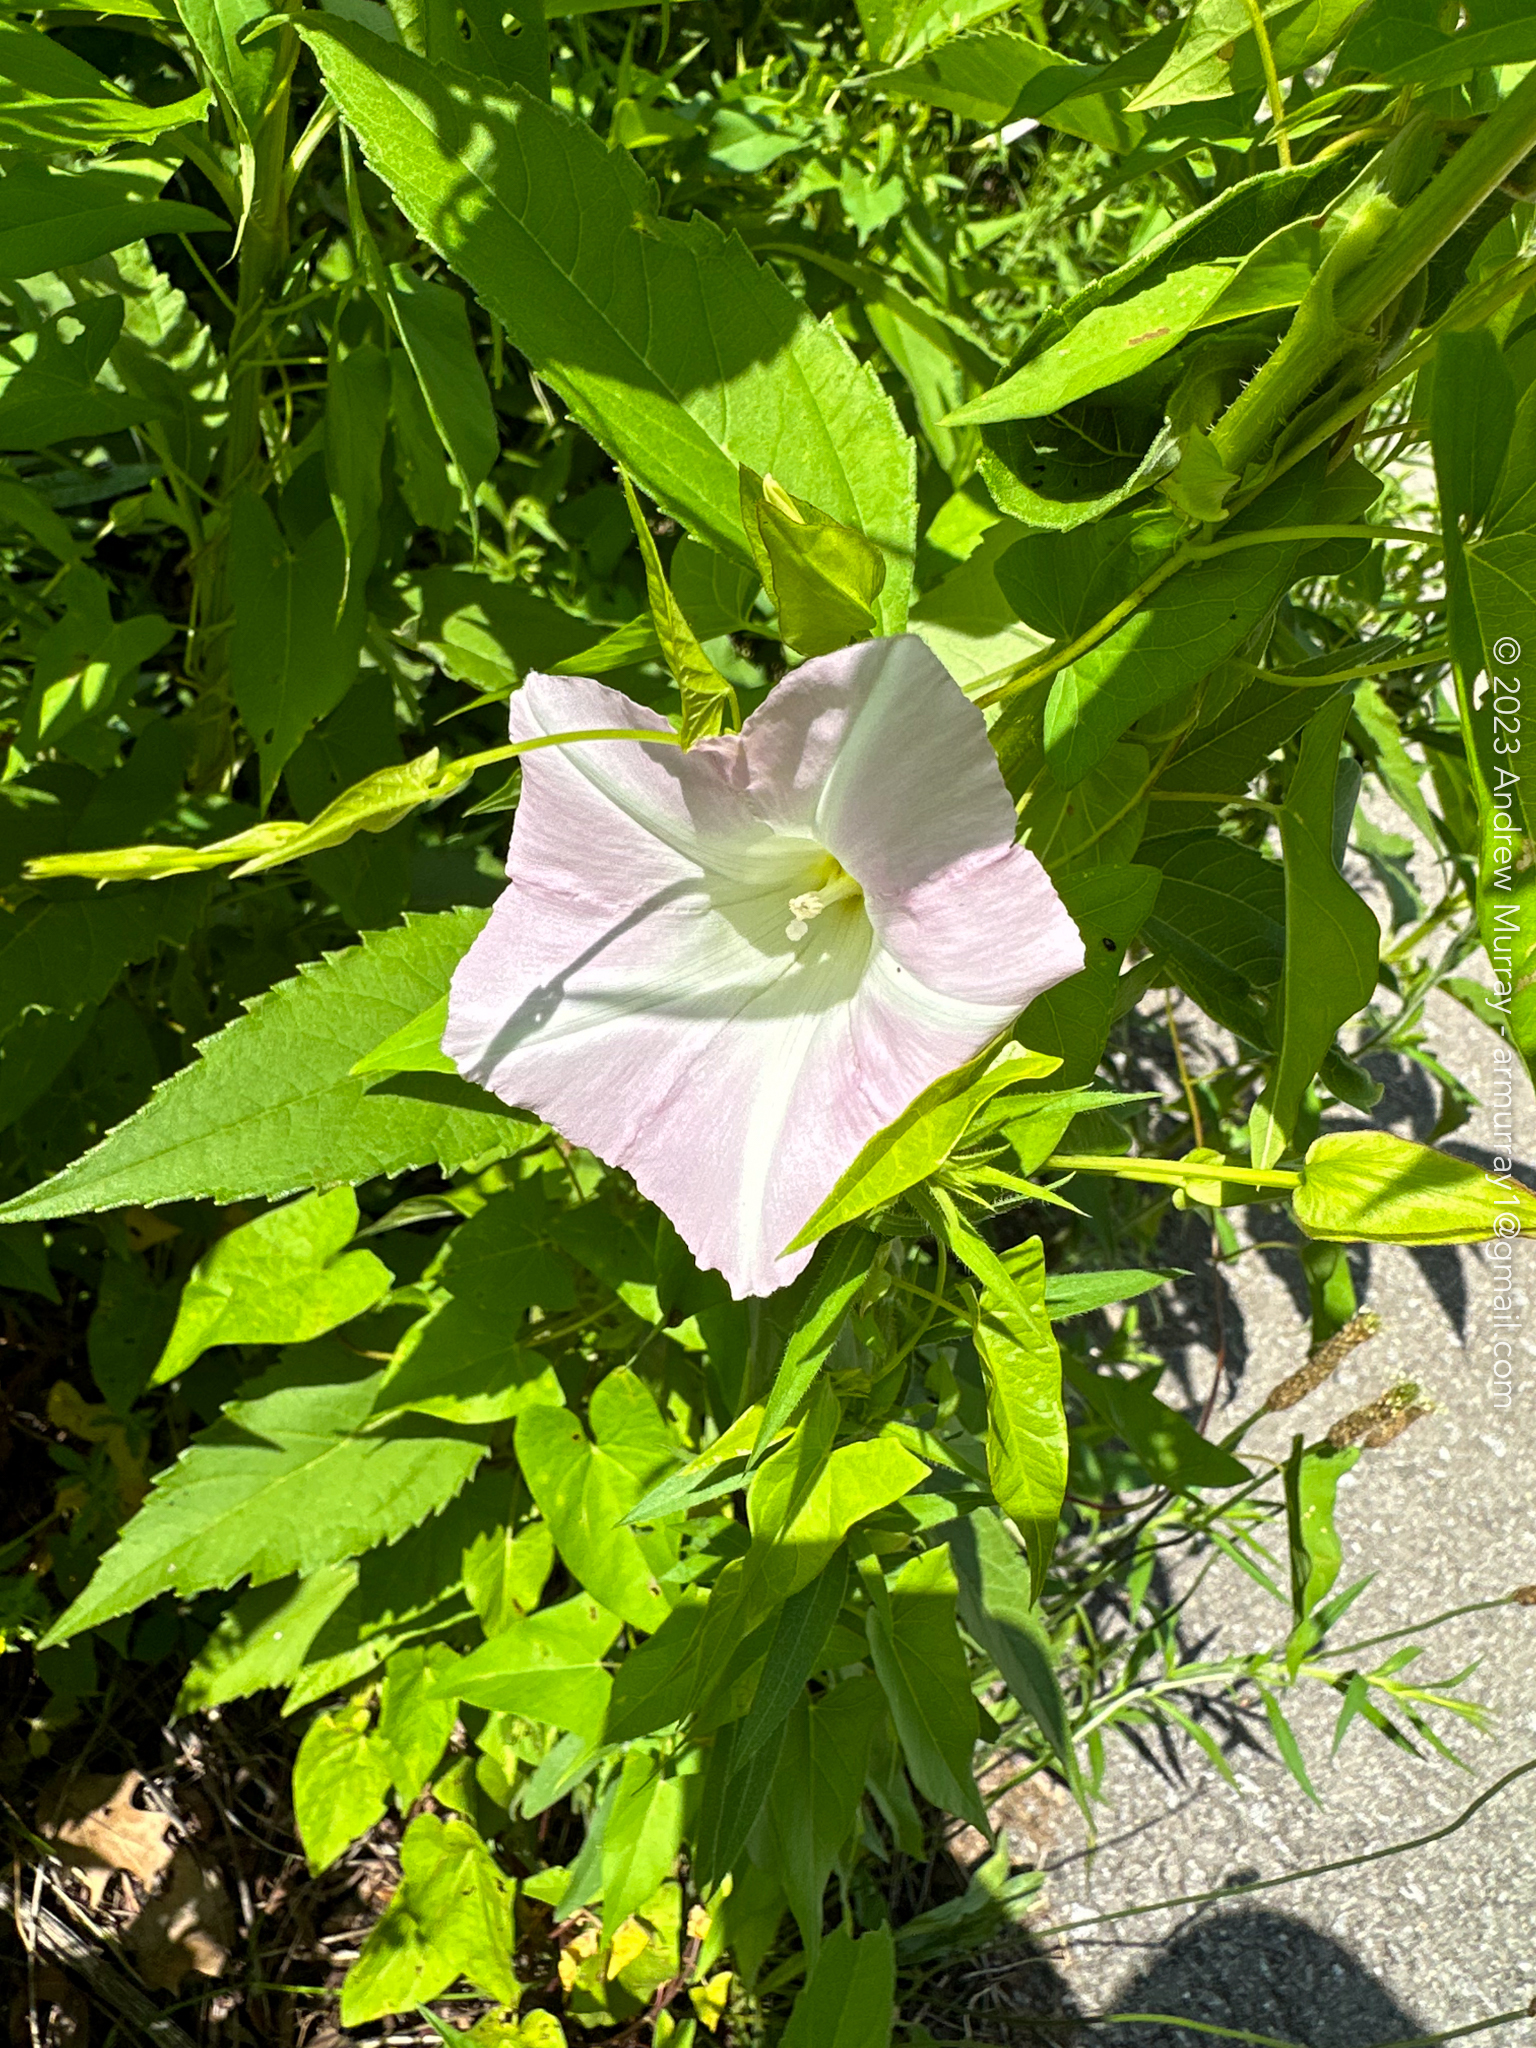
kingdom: Plantae
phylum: Tracheophyta
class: Magnoliopsida
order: Solanales
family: Convolvulaceae
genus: Calystegia
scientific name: Calystegia sepium
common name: Hedge bindweed
